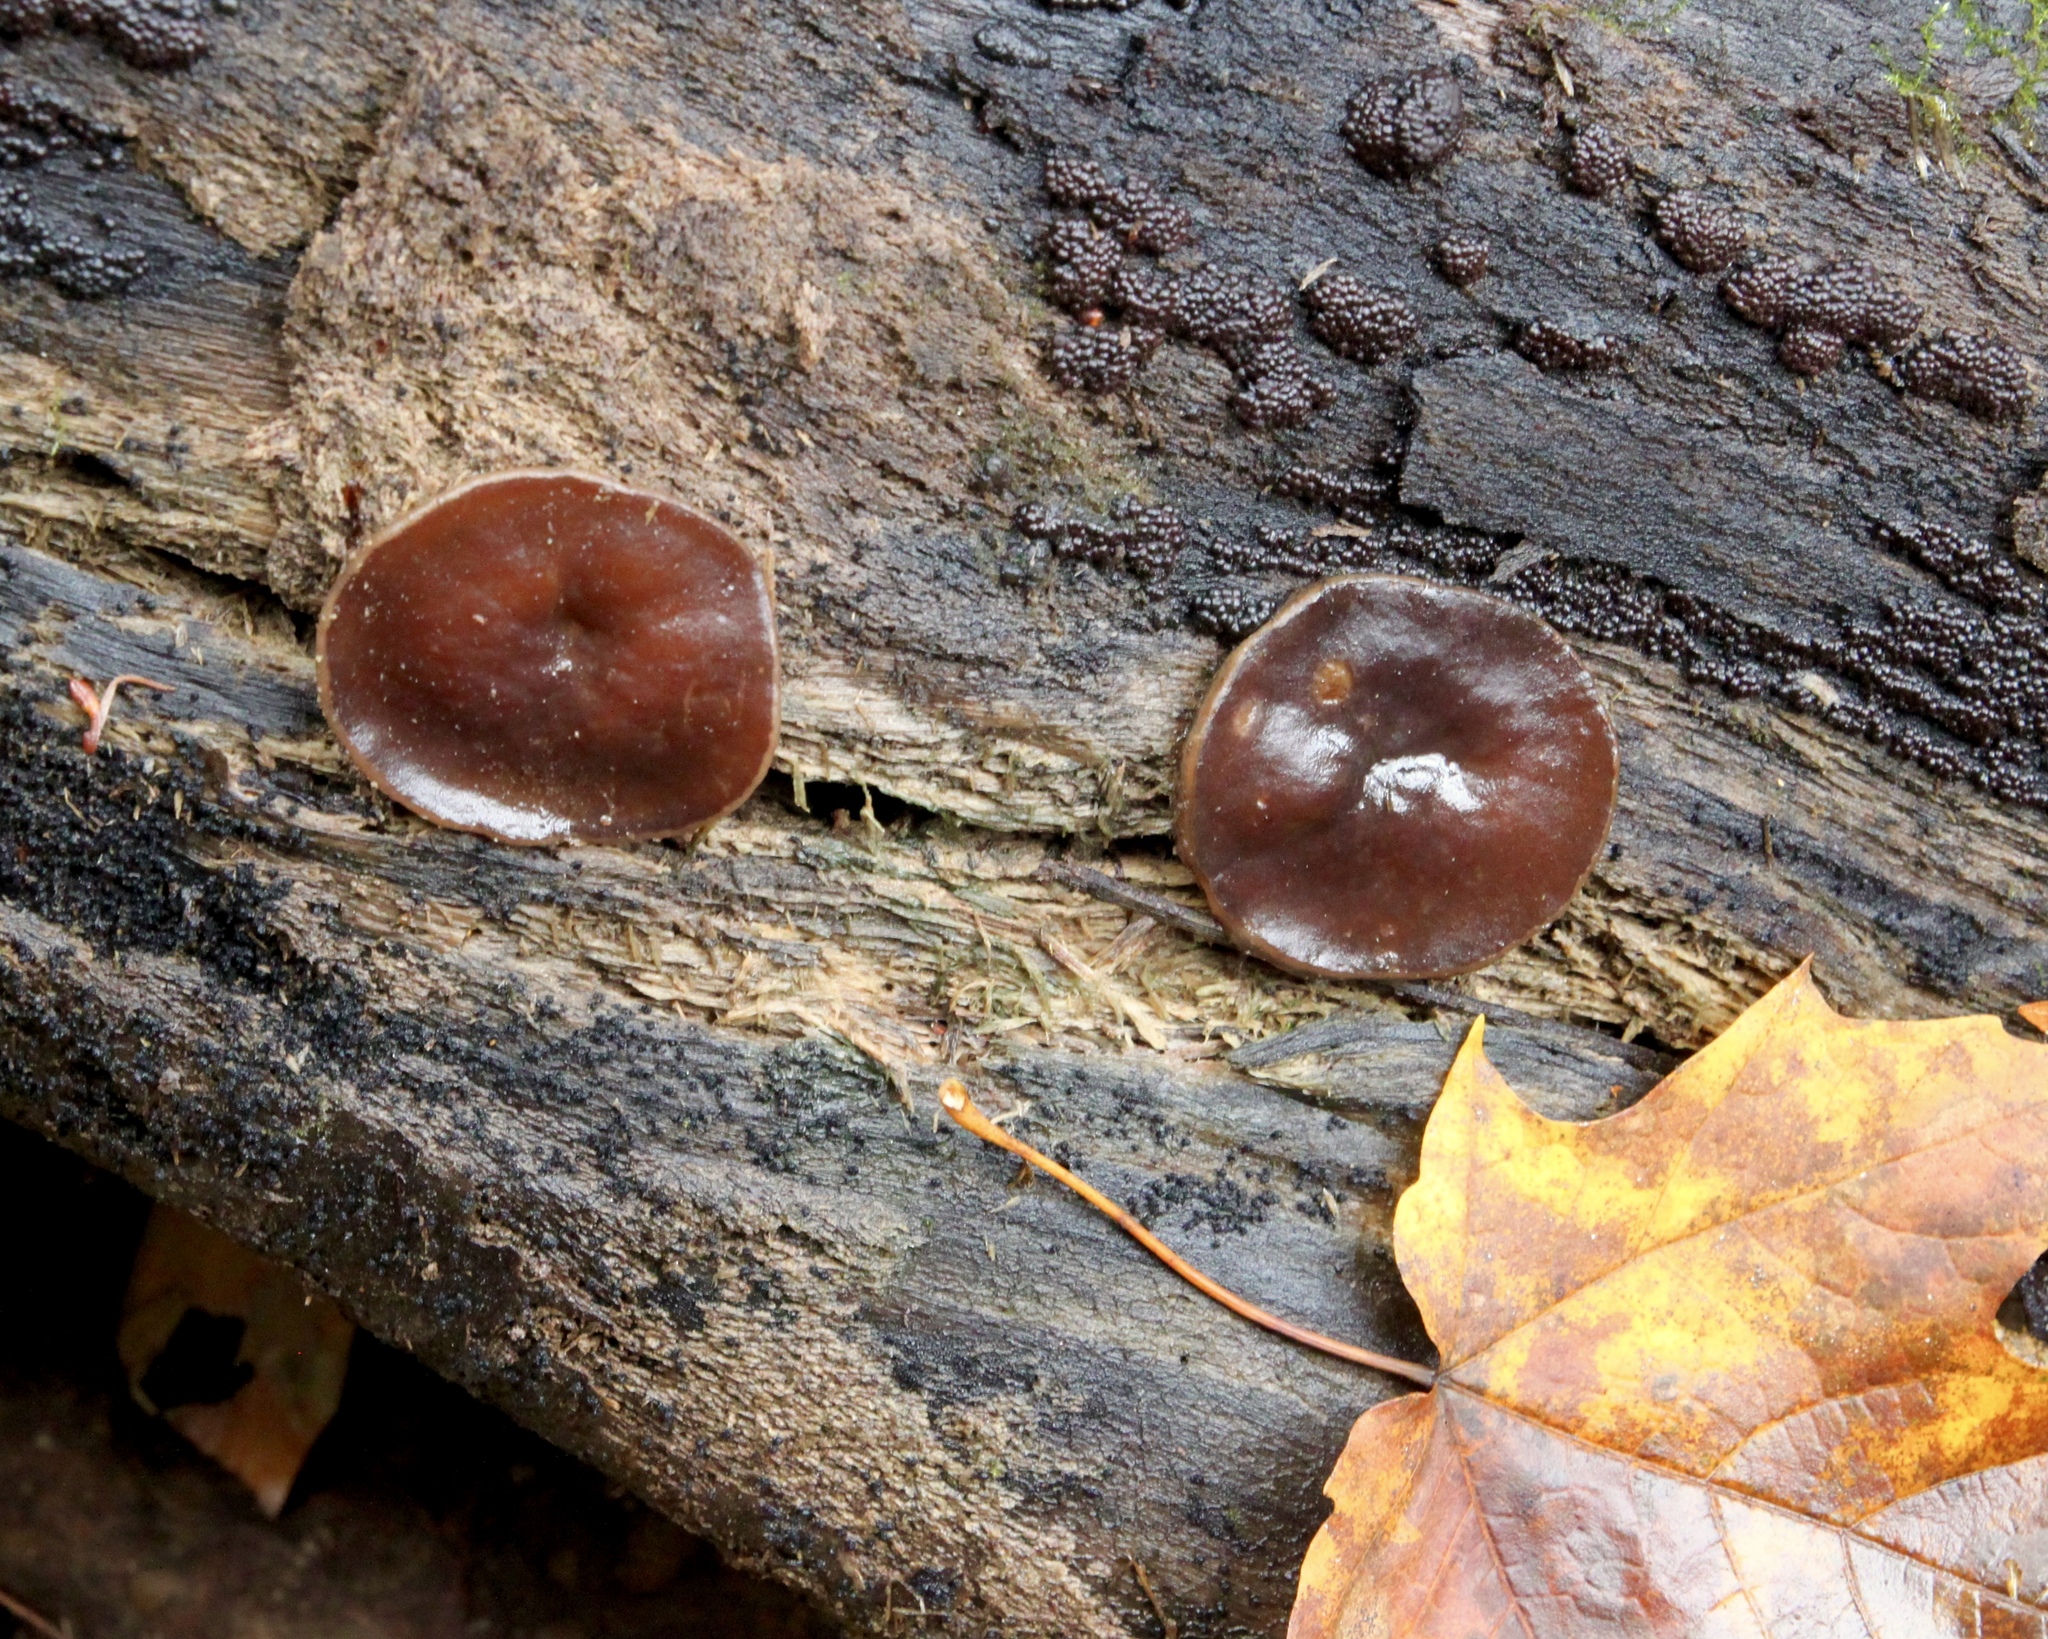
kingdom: Fungi
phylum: Ascomycota
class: Pezizomycetes
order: Pezizales
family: Pezizaceae
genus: Pachyella
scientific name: Pachyella clypeata
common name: Copper penny fungus
